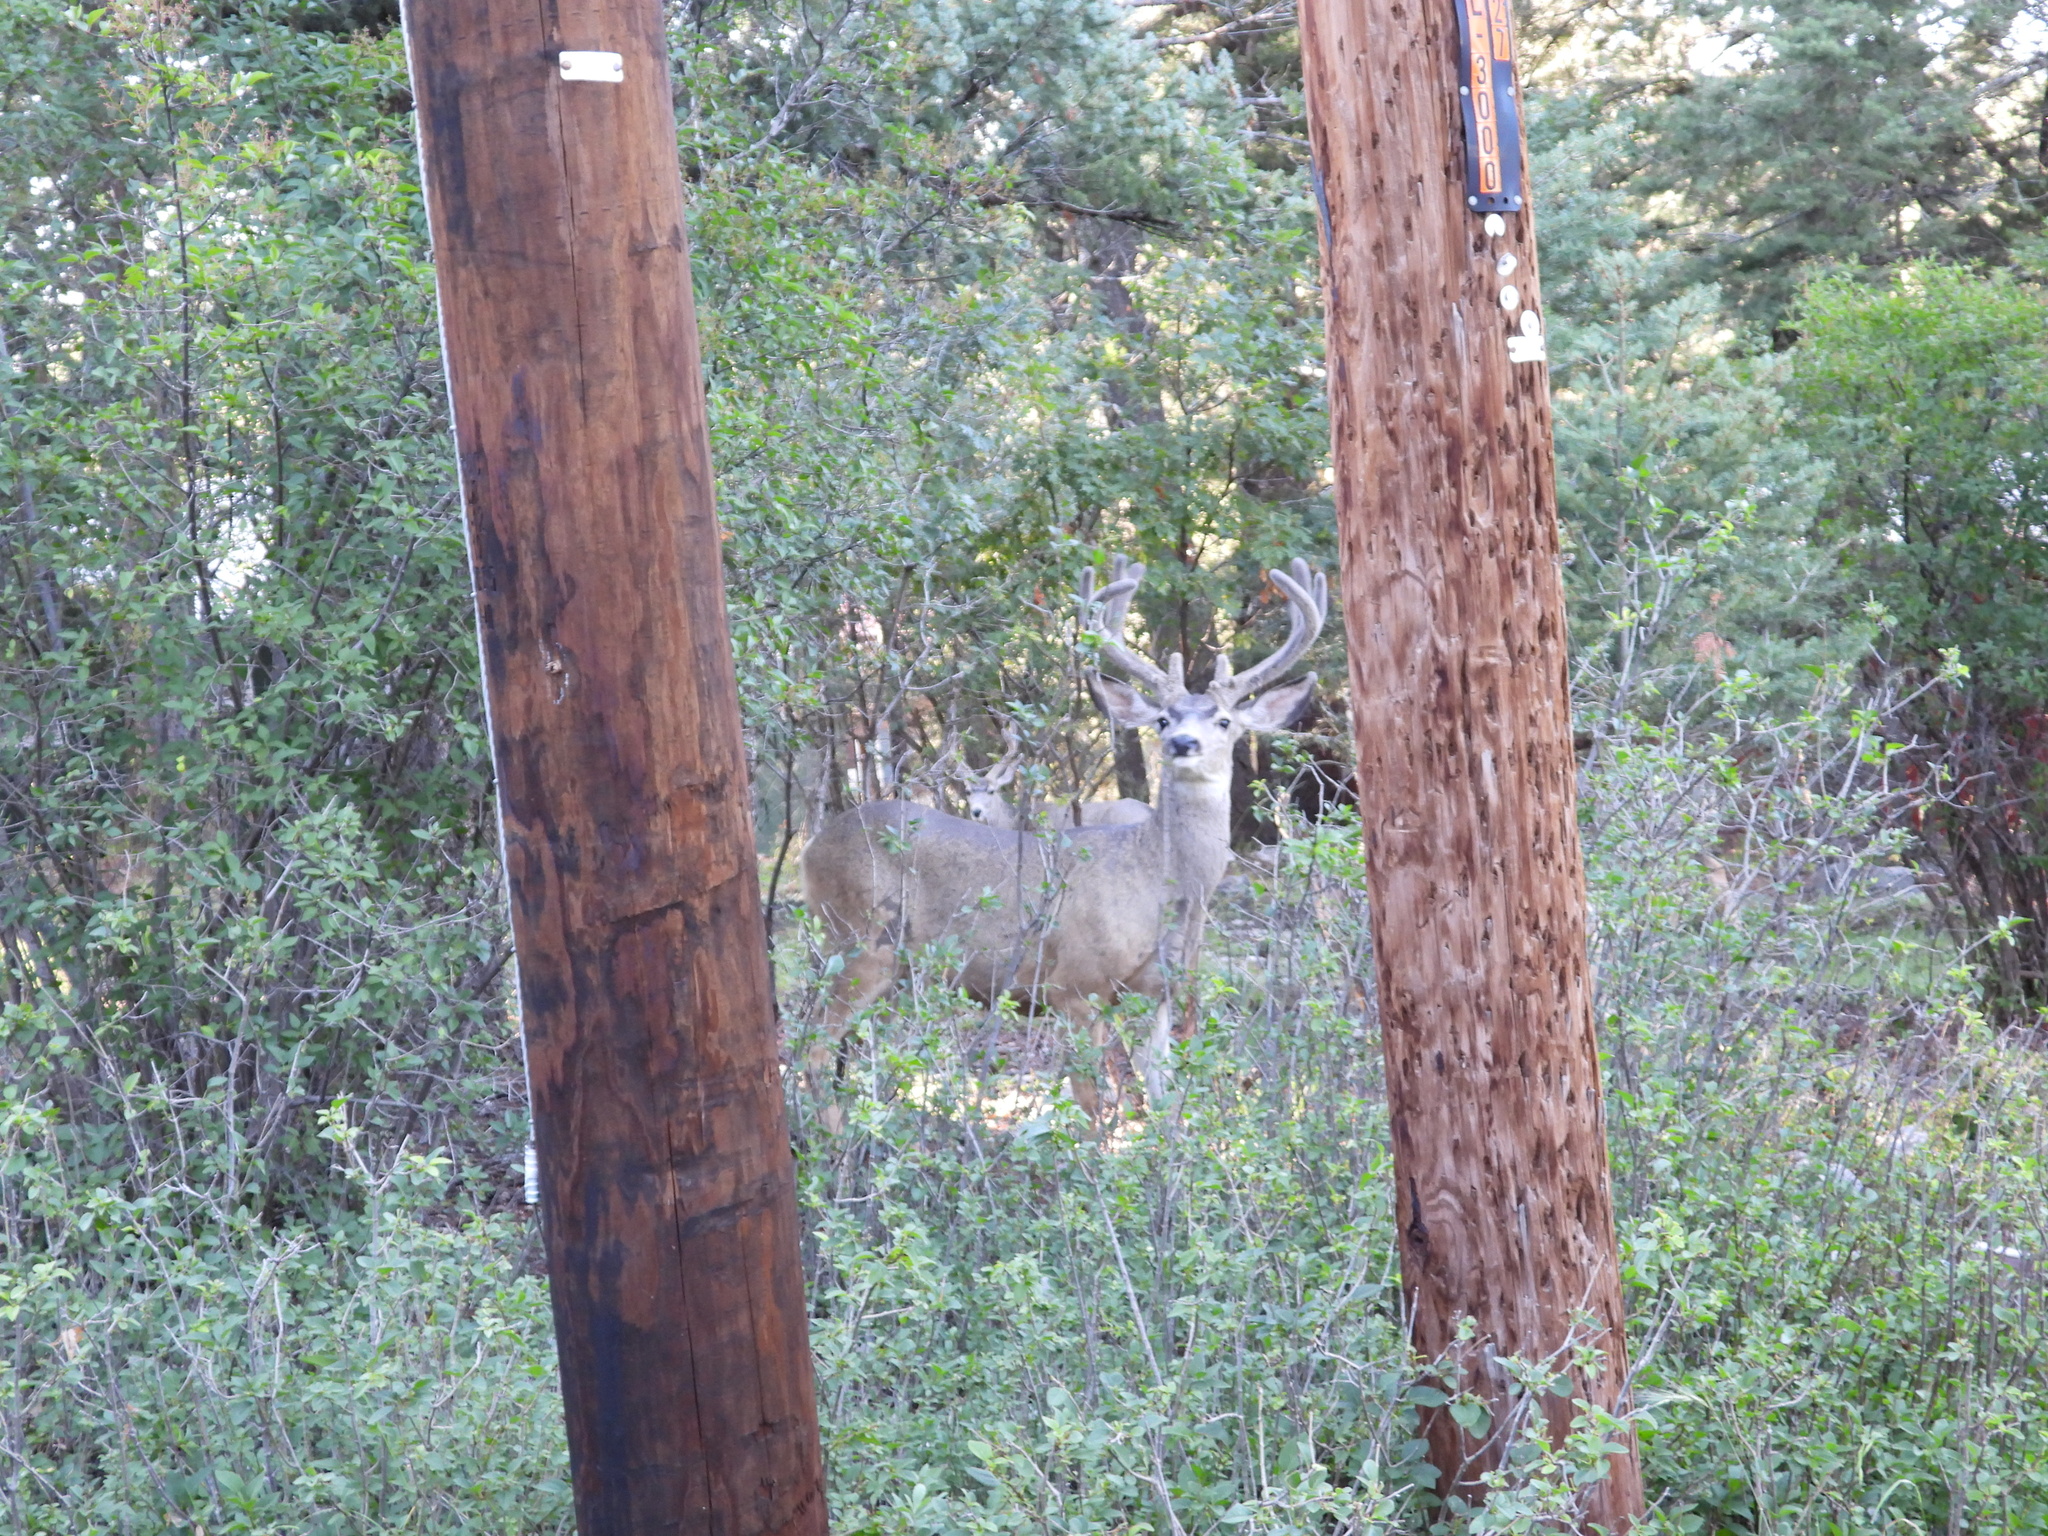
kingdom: Animalia
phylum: Chordata
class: Mammalia
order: Artiodactyla
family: Cervidae
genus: Odocoileus
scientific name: Odocoileus hemionus
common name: Mule deer
